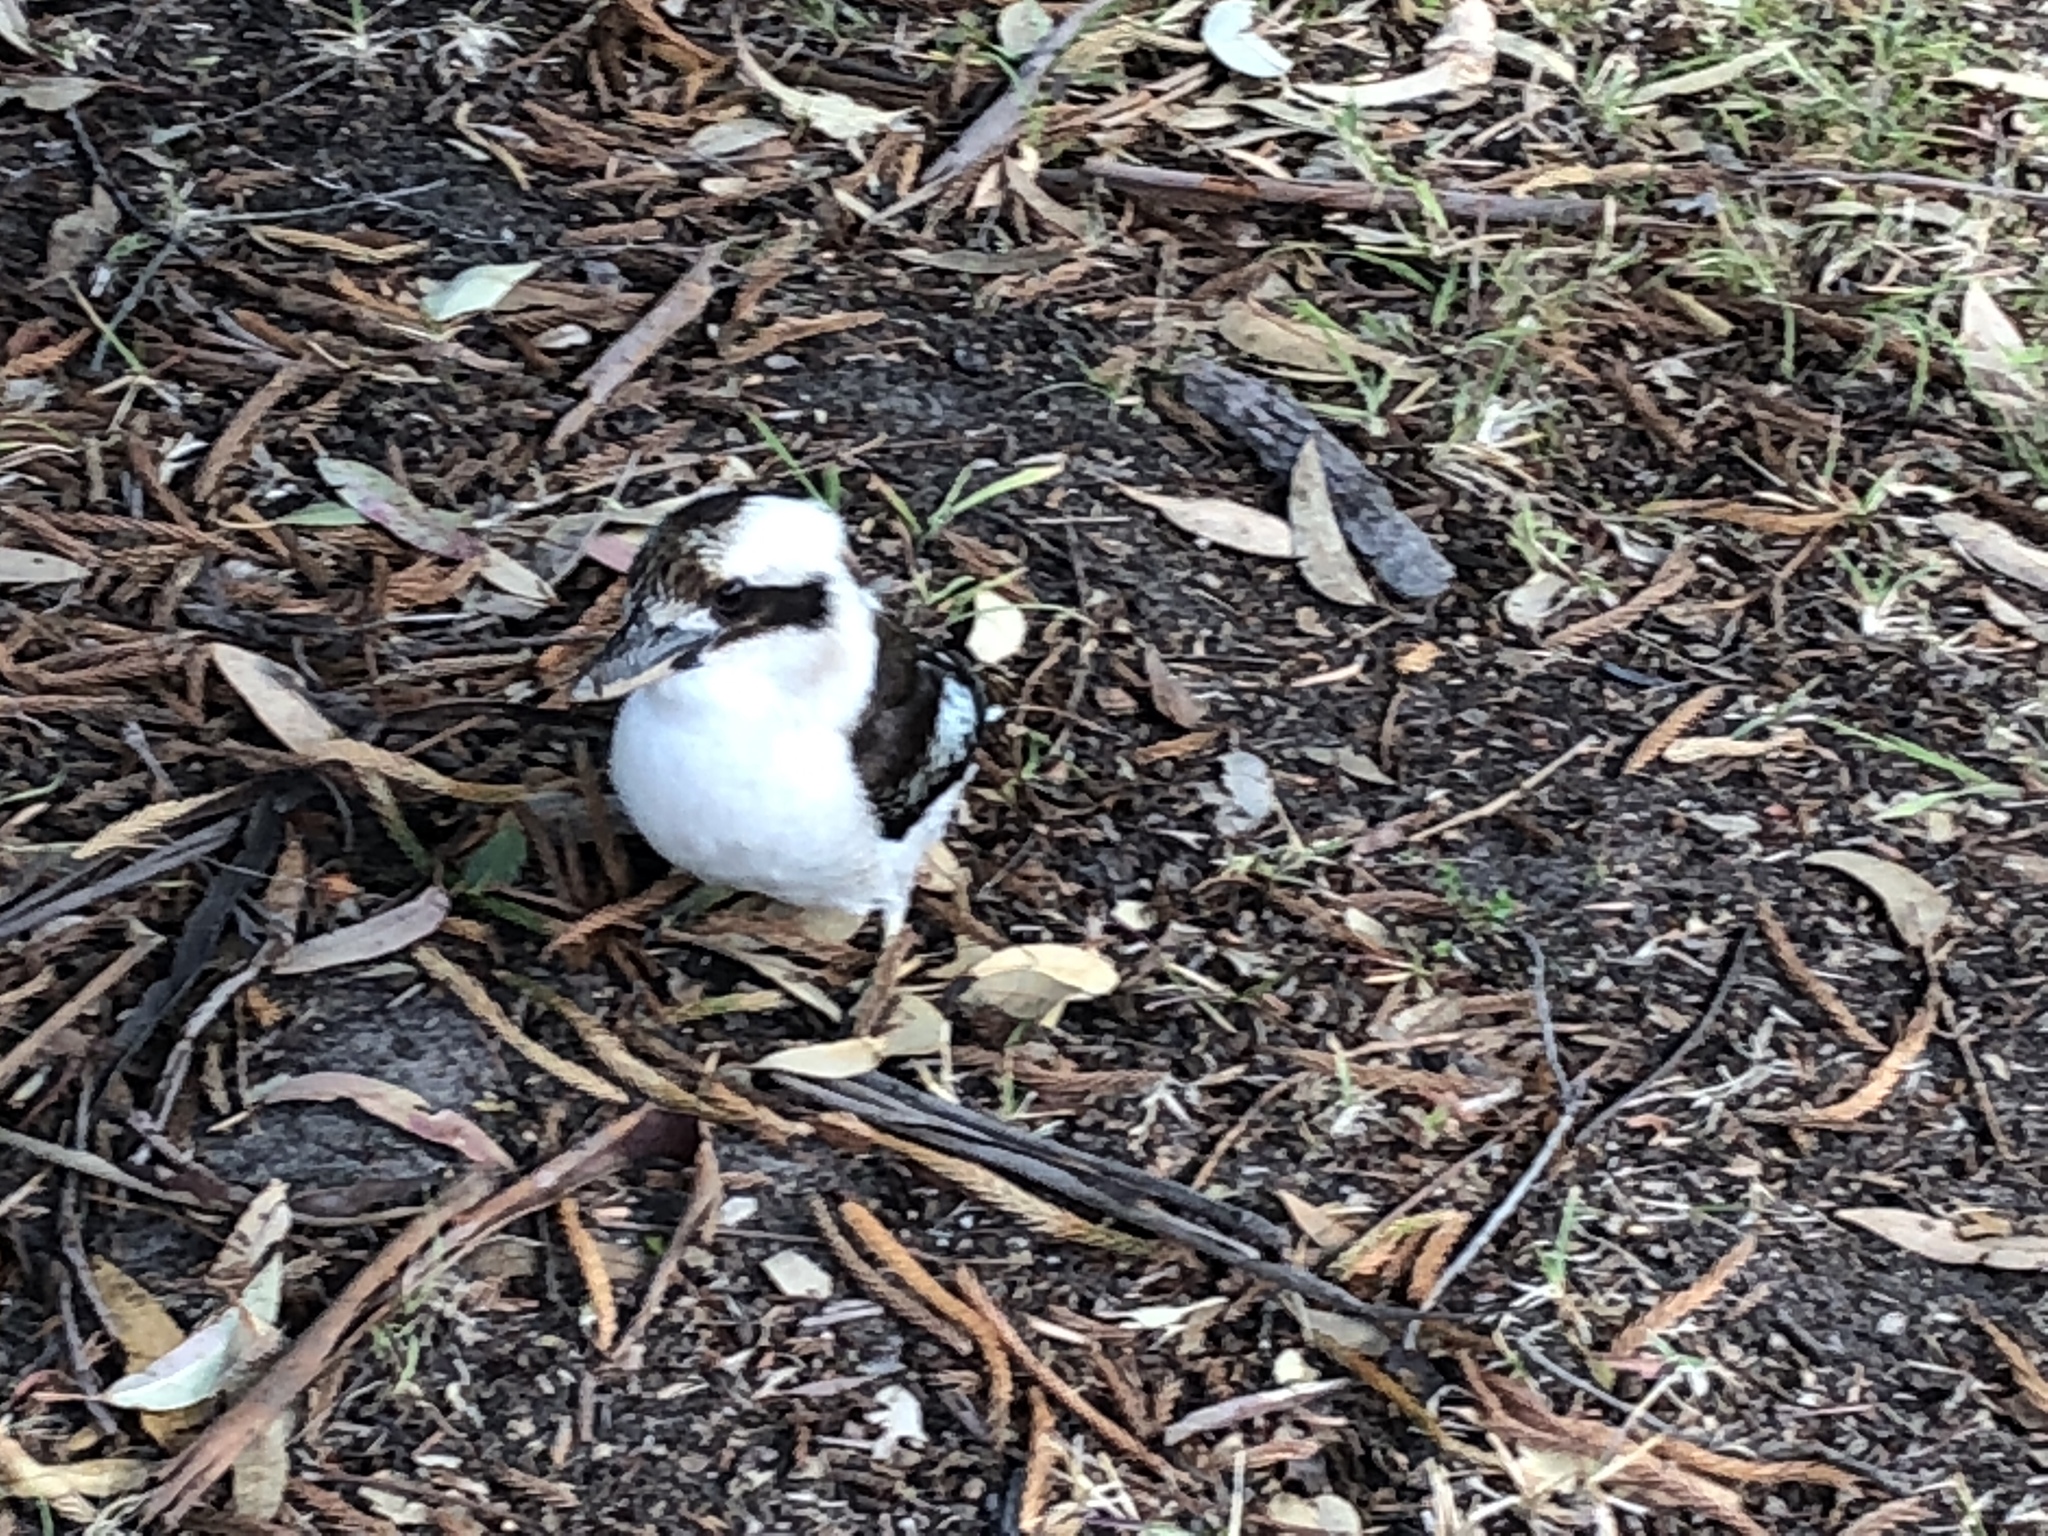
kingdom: Animalia
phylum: Chordata
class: Aves
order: Coraciiformes
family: Alcedinidae
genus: Dacelo
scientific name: Dacelo novaeguineae
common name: Laughing kookaburra
